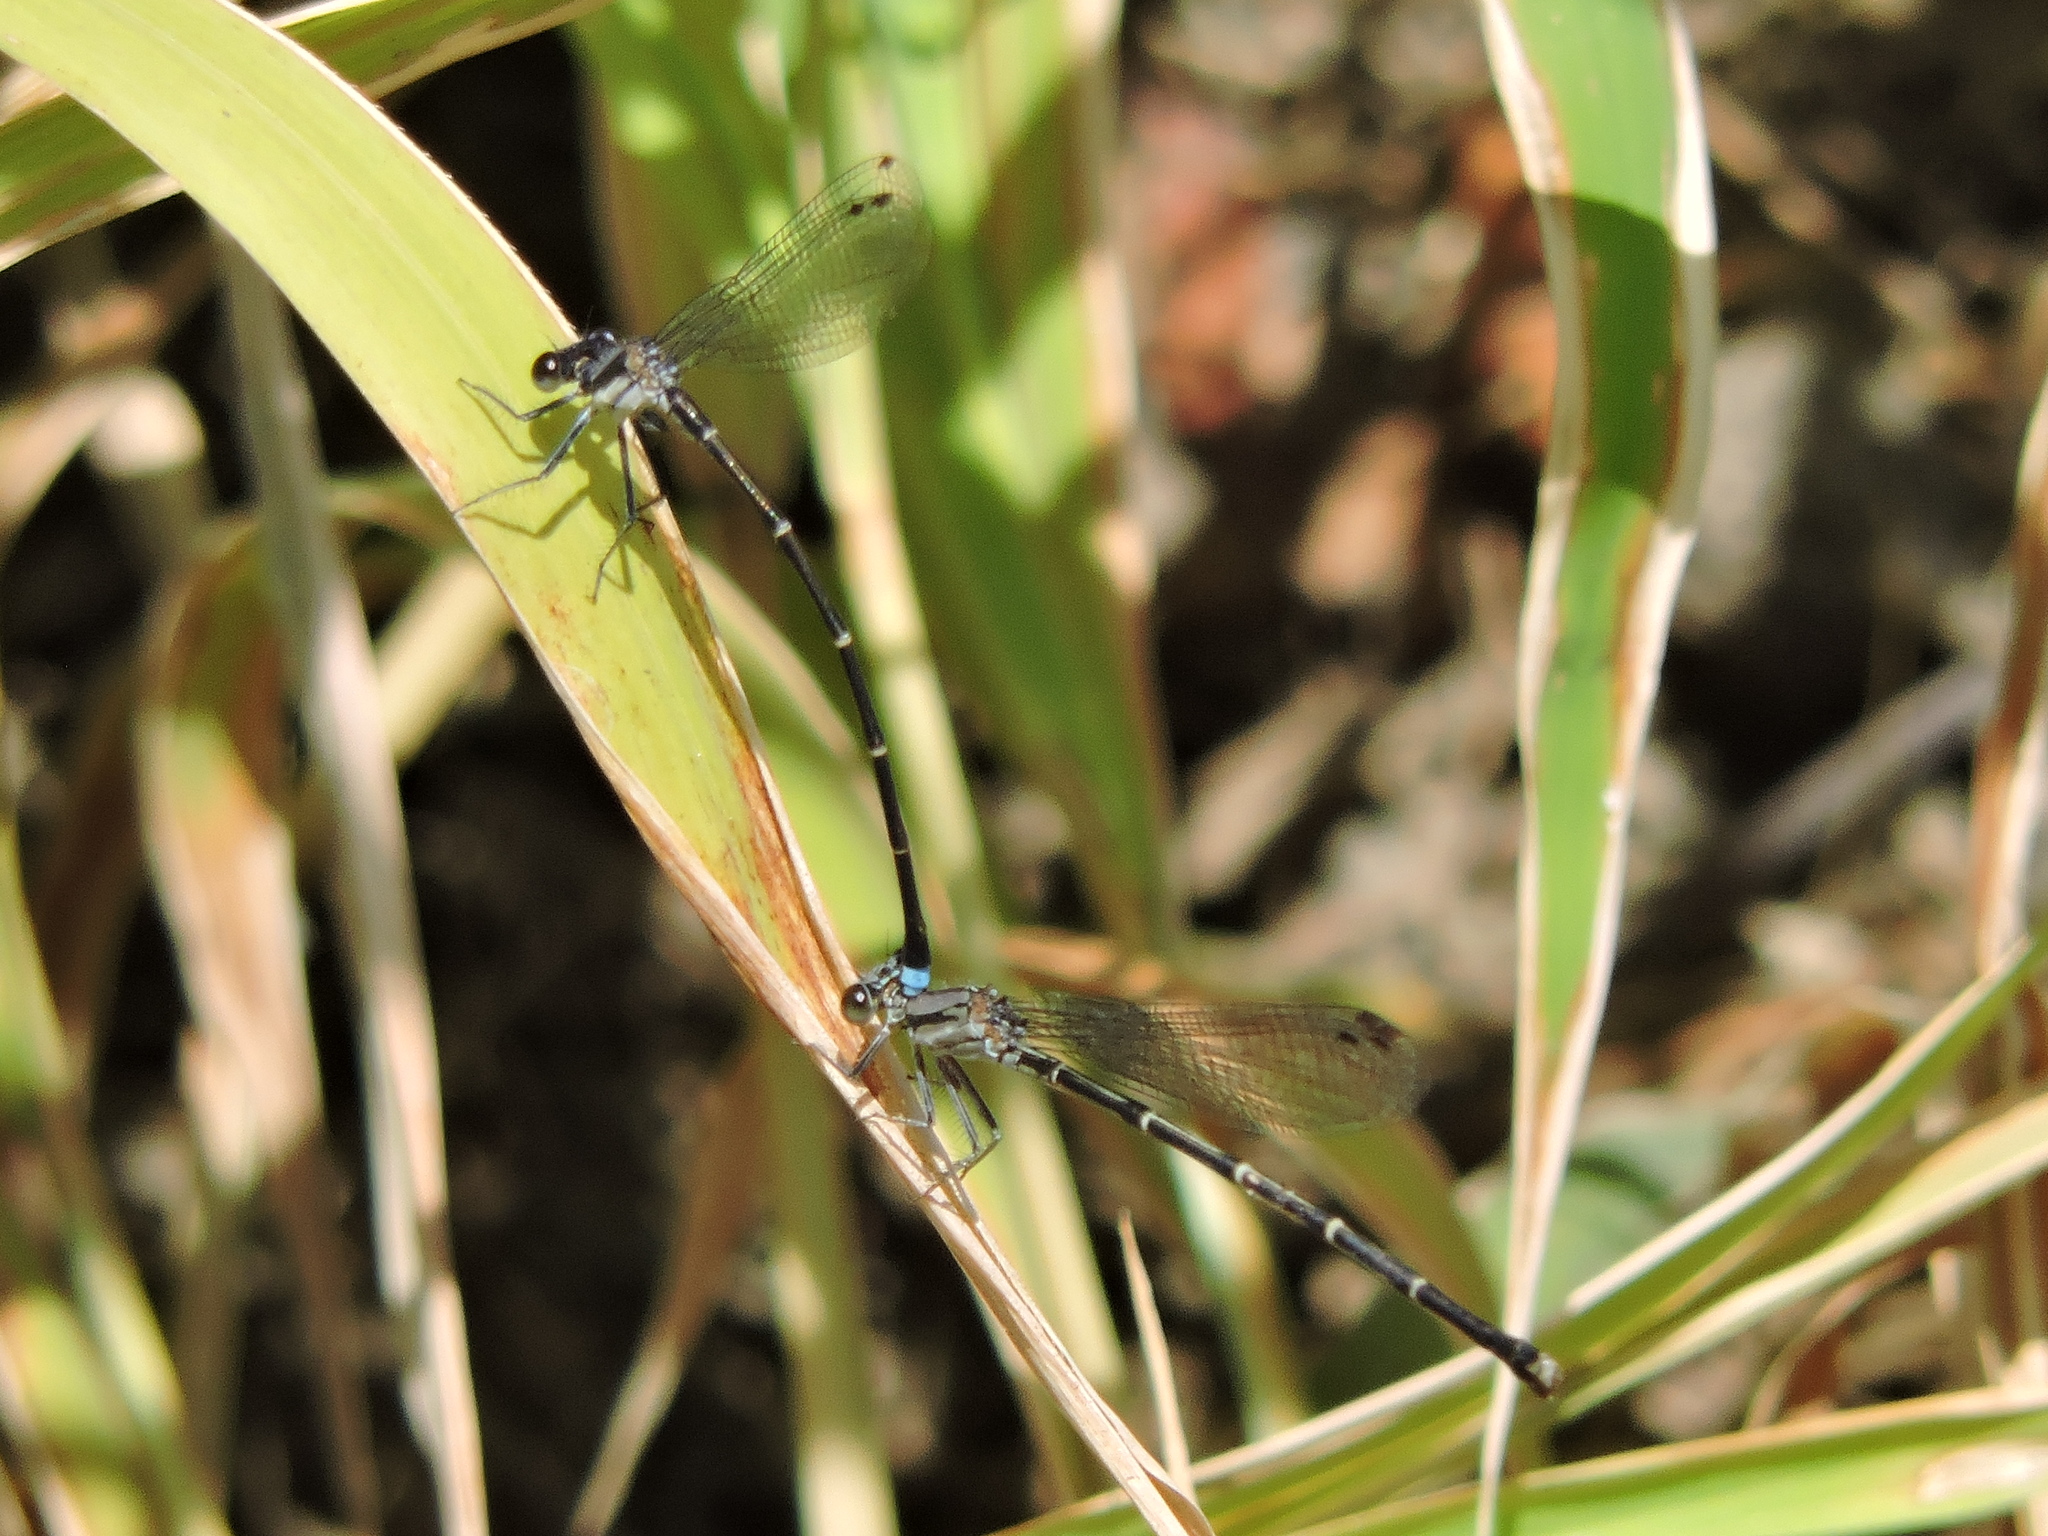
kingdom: Animalia
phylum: Arthropoda
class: Insecta
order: Odonata
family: Coenagrionidae
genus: Argia
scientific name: Argia tibialis
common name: Blue-tipped dancer
